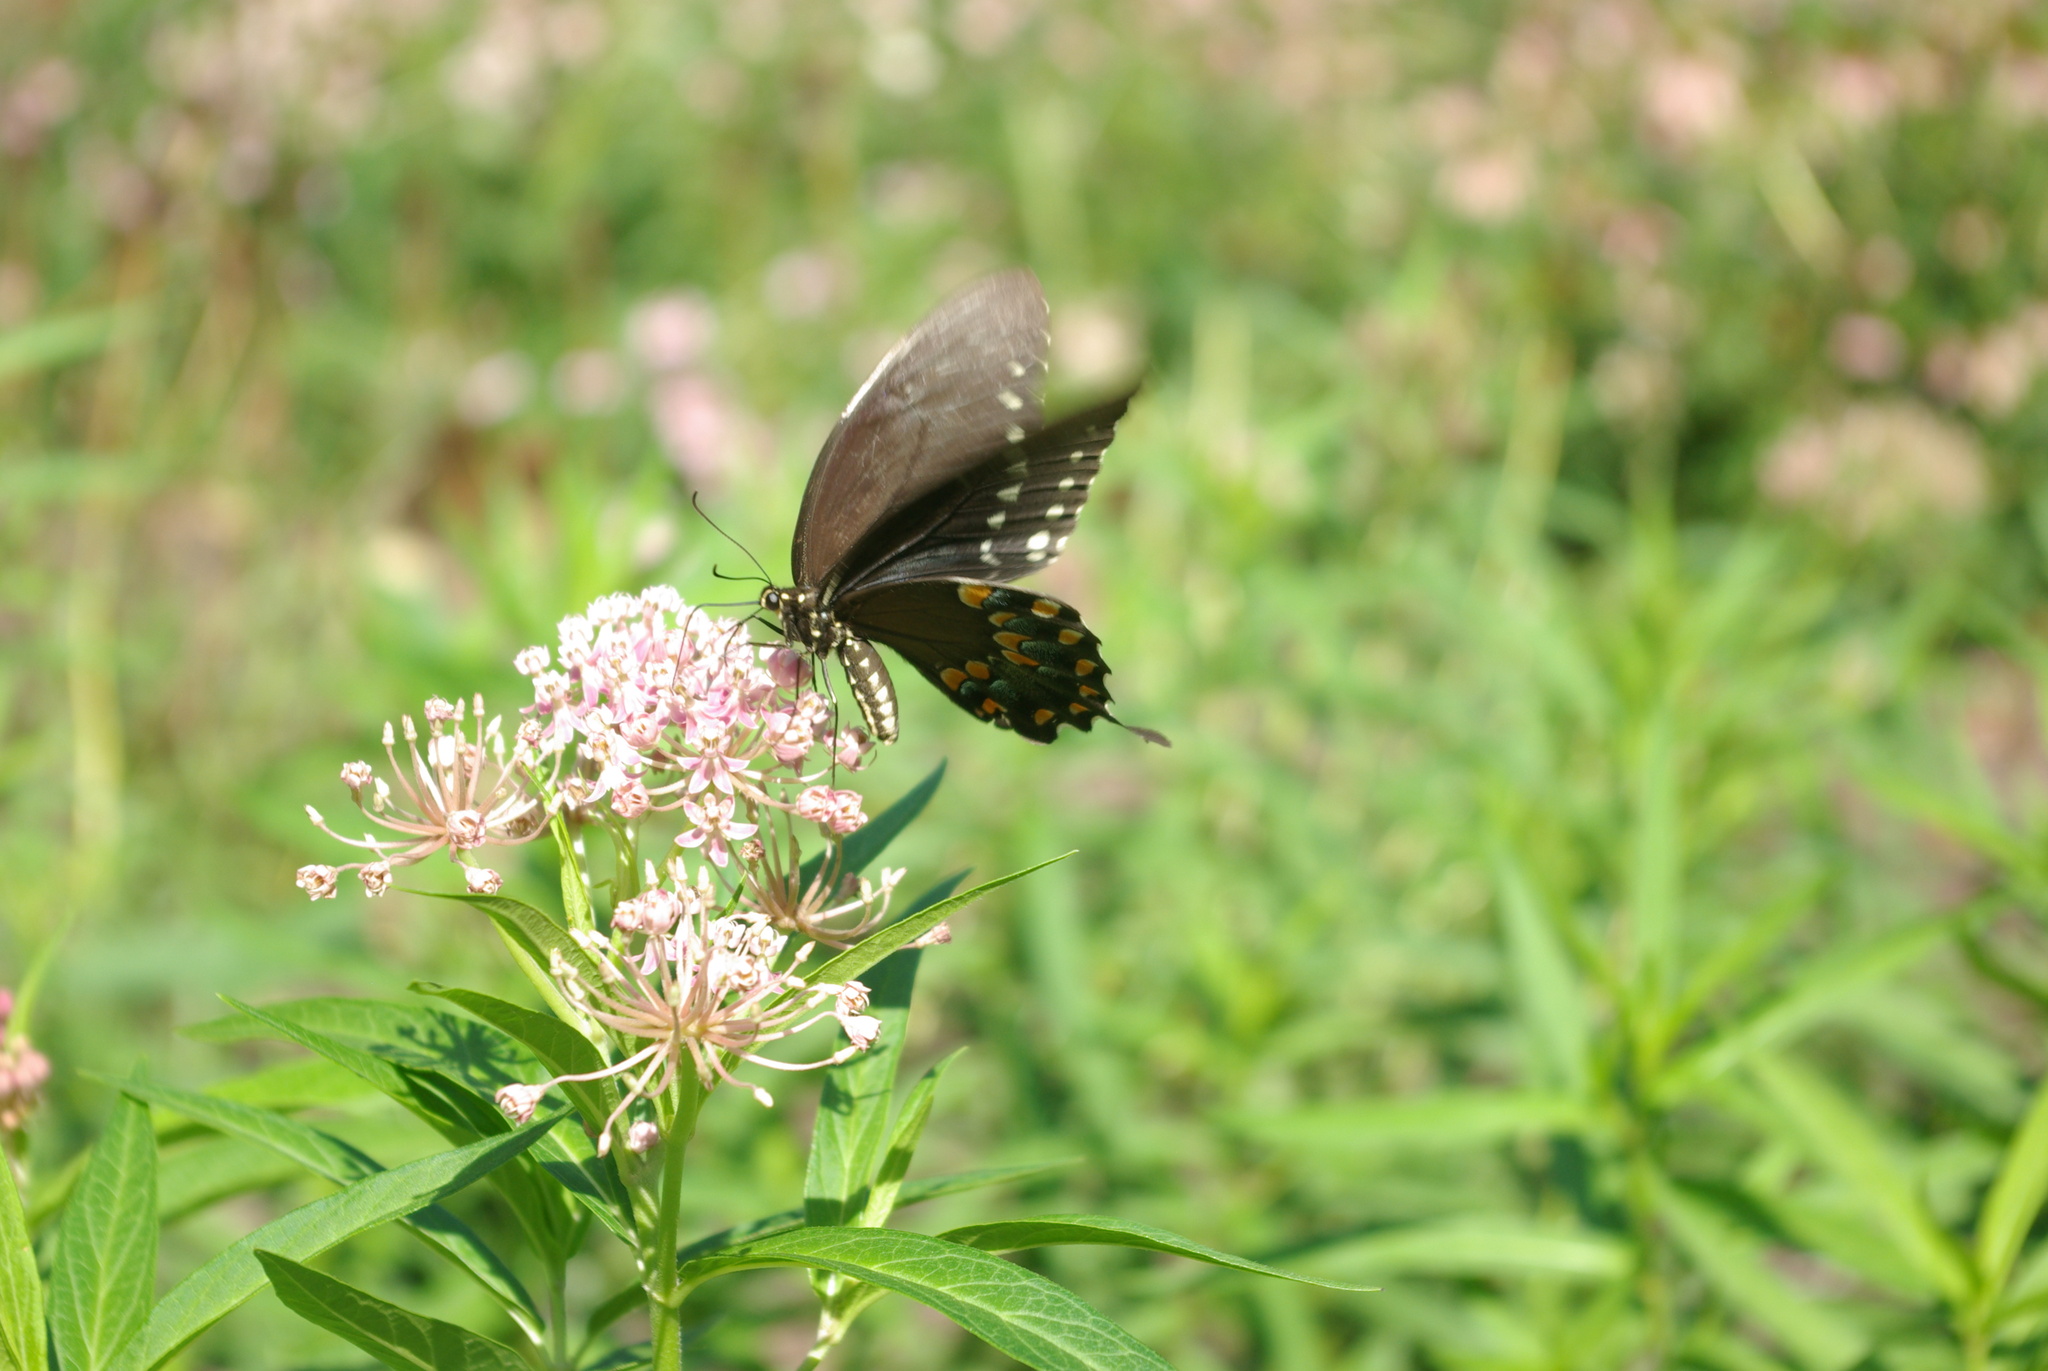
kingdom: Animalia
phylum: Arthropoda
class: Insecta
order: Lepidoptera
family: Papilionidae
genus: Papilio
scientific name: Papilio troilus
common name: Spicebush swallowtail
